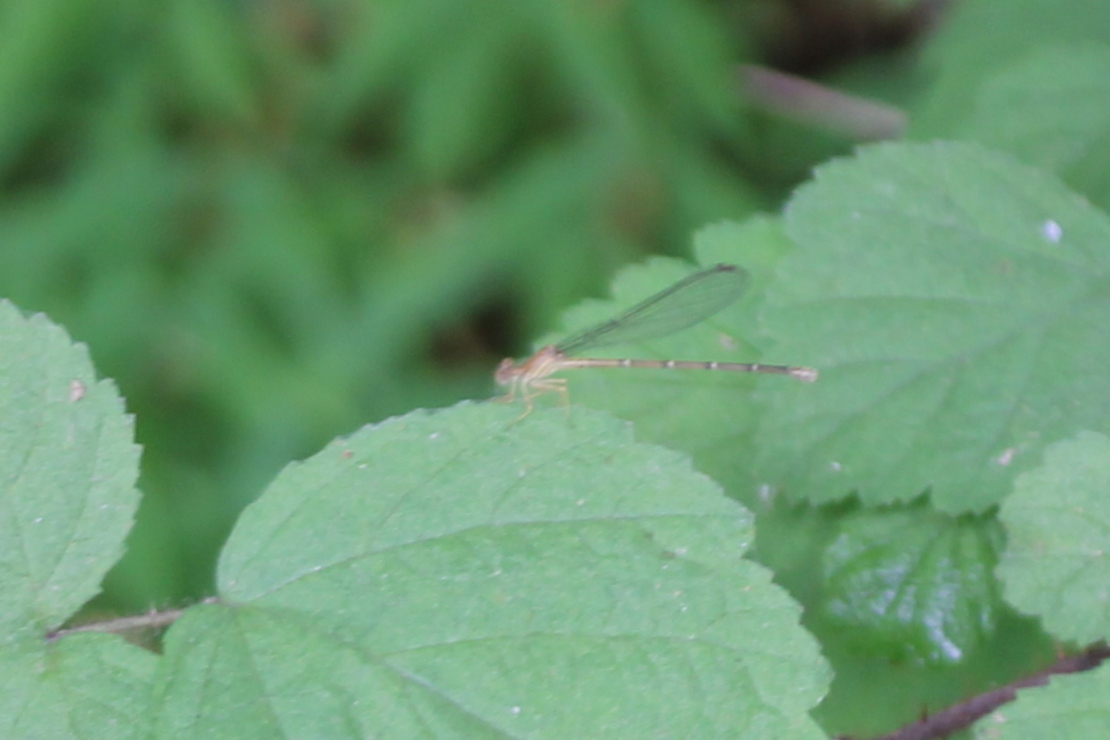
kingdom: Animalia
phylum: Arthropoda
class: Insecta
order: Odonata
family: Coenagrionidae
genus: Argia
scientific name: Argia moesta
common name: Powdered dancer
